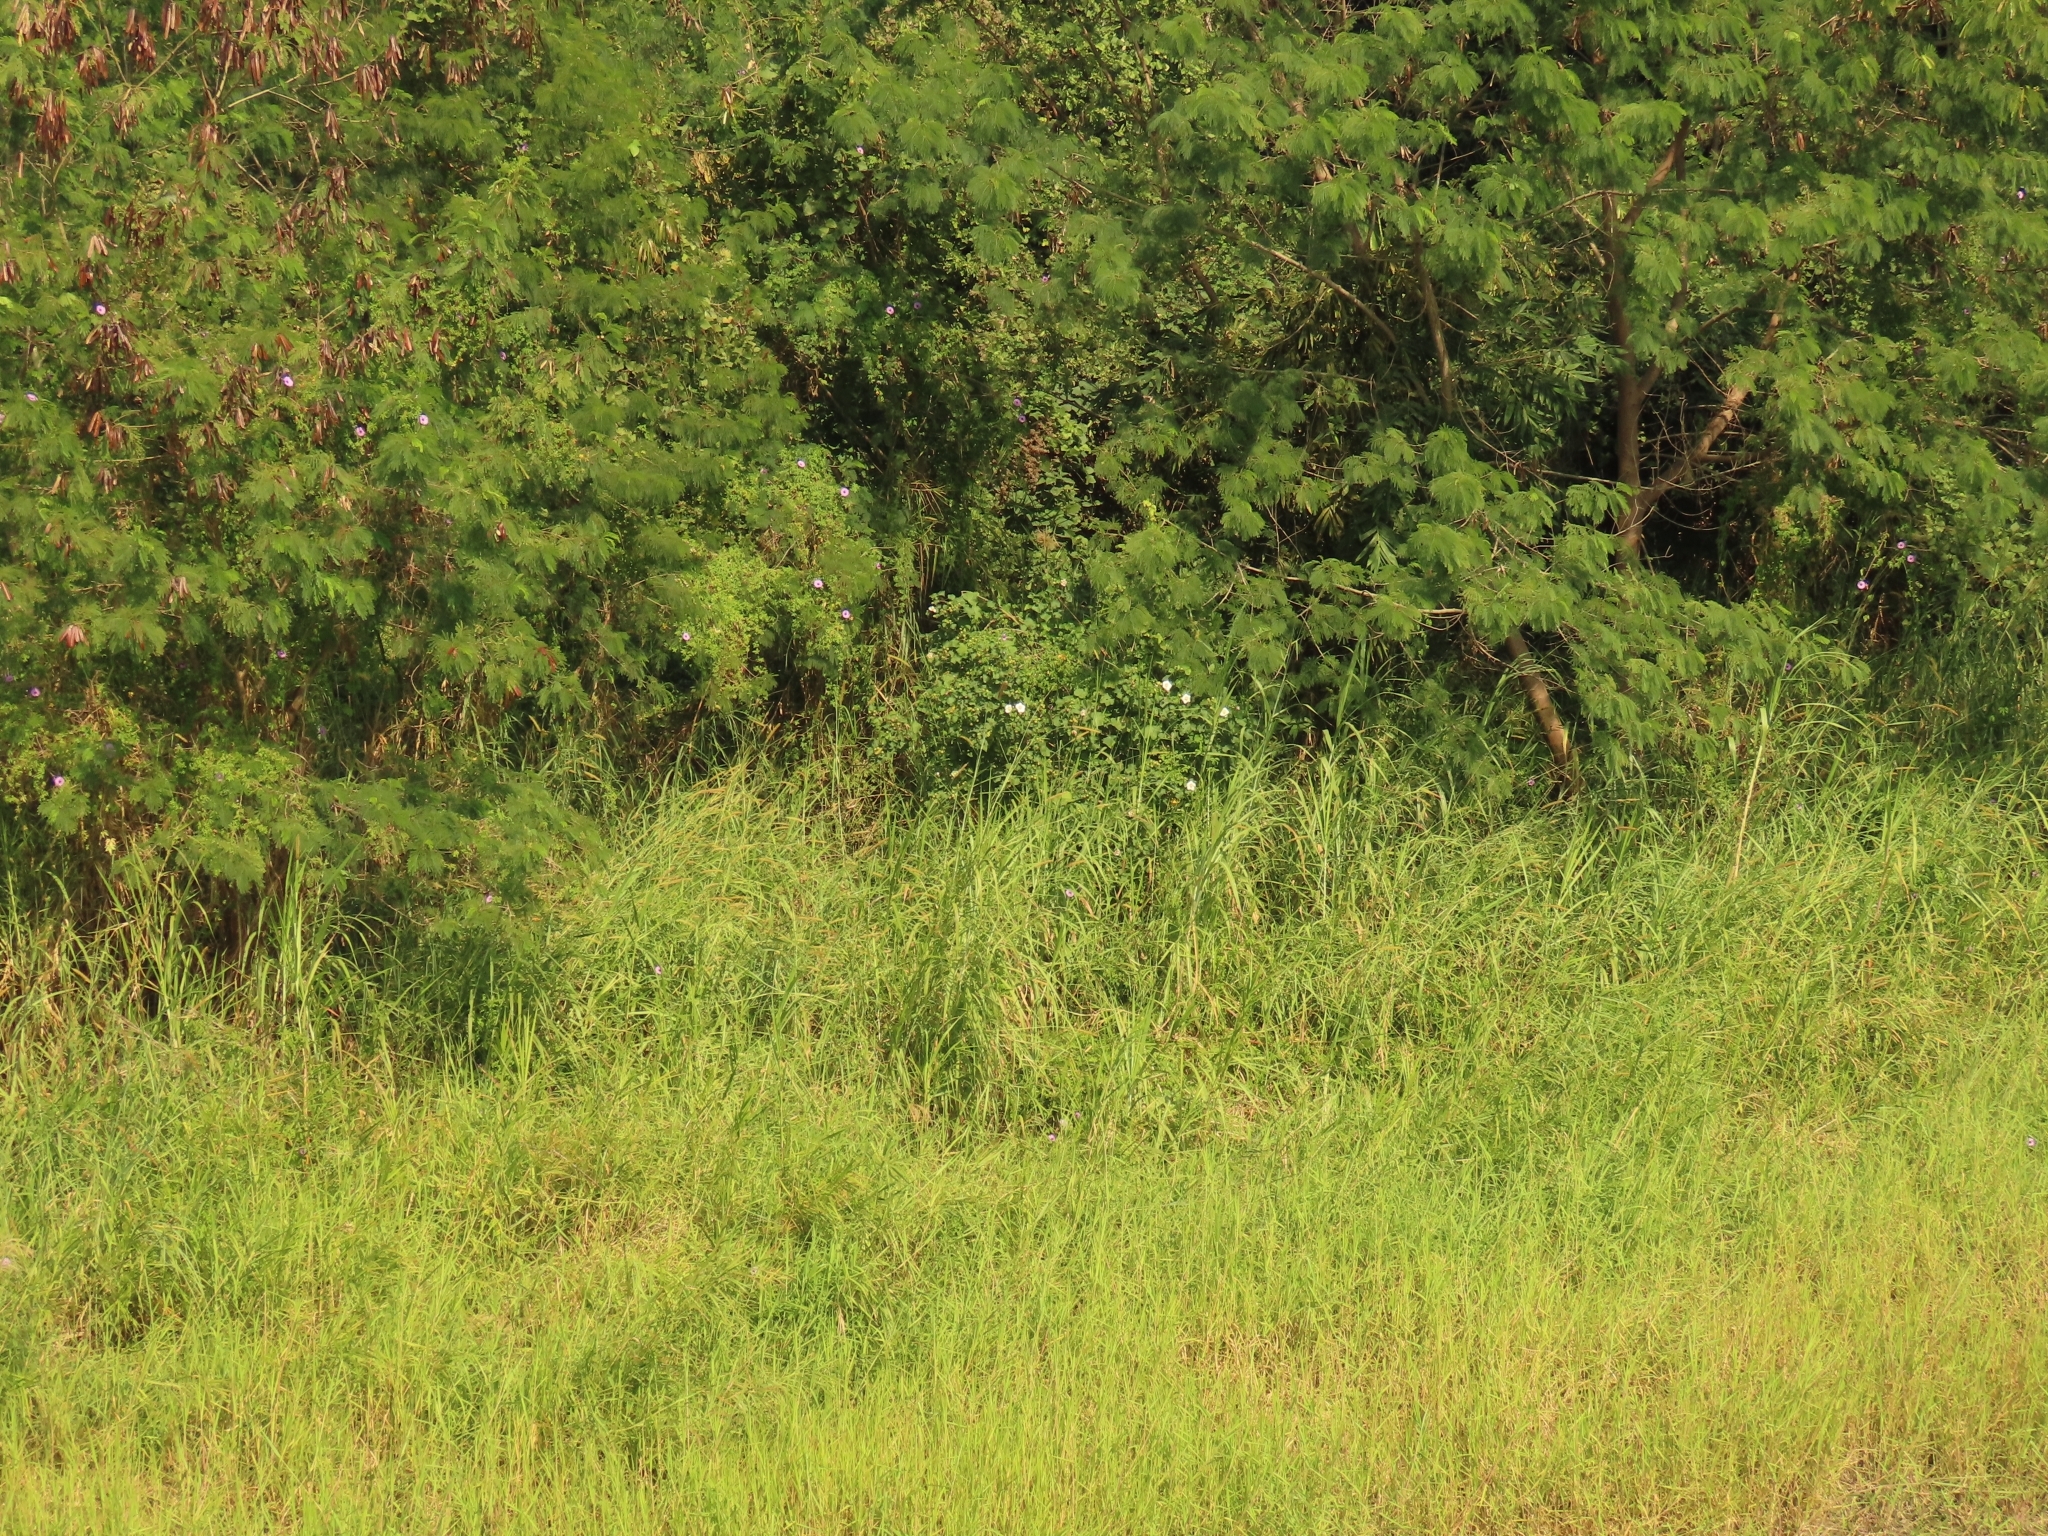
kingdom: Plantae
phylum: Tracheophyta
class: Magnoliopsida
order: Malvales
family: Malvaceae
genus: Hibiscus
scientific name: Hibiscus taiwanensis
